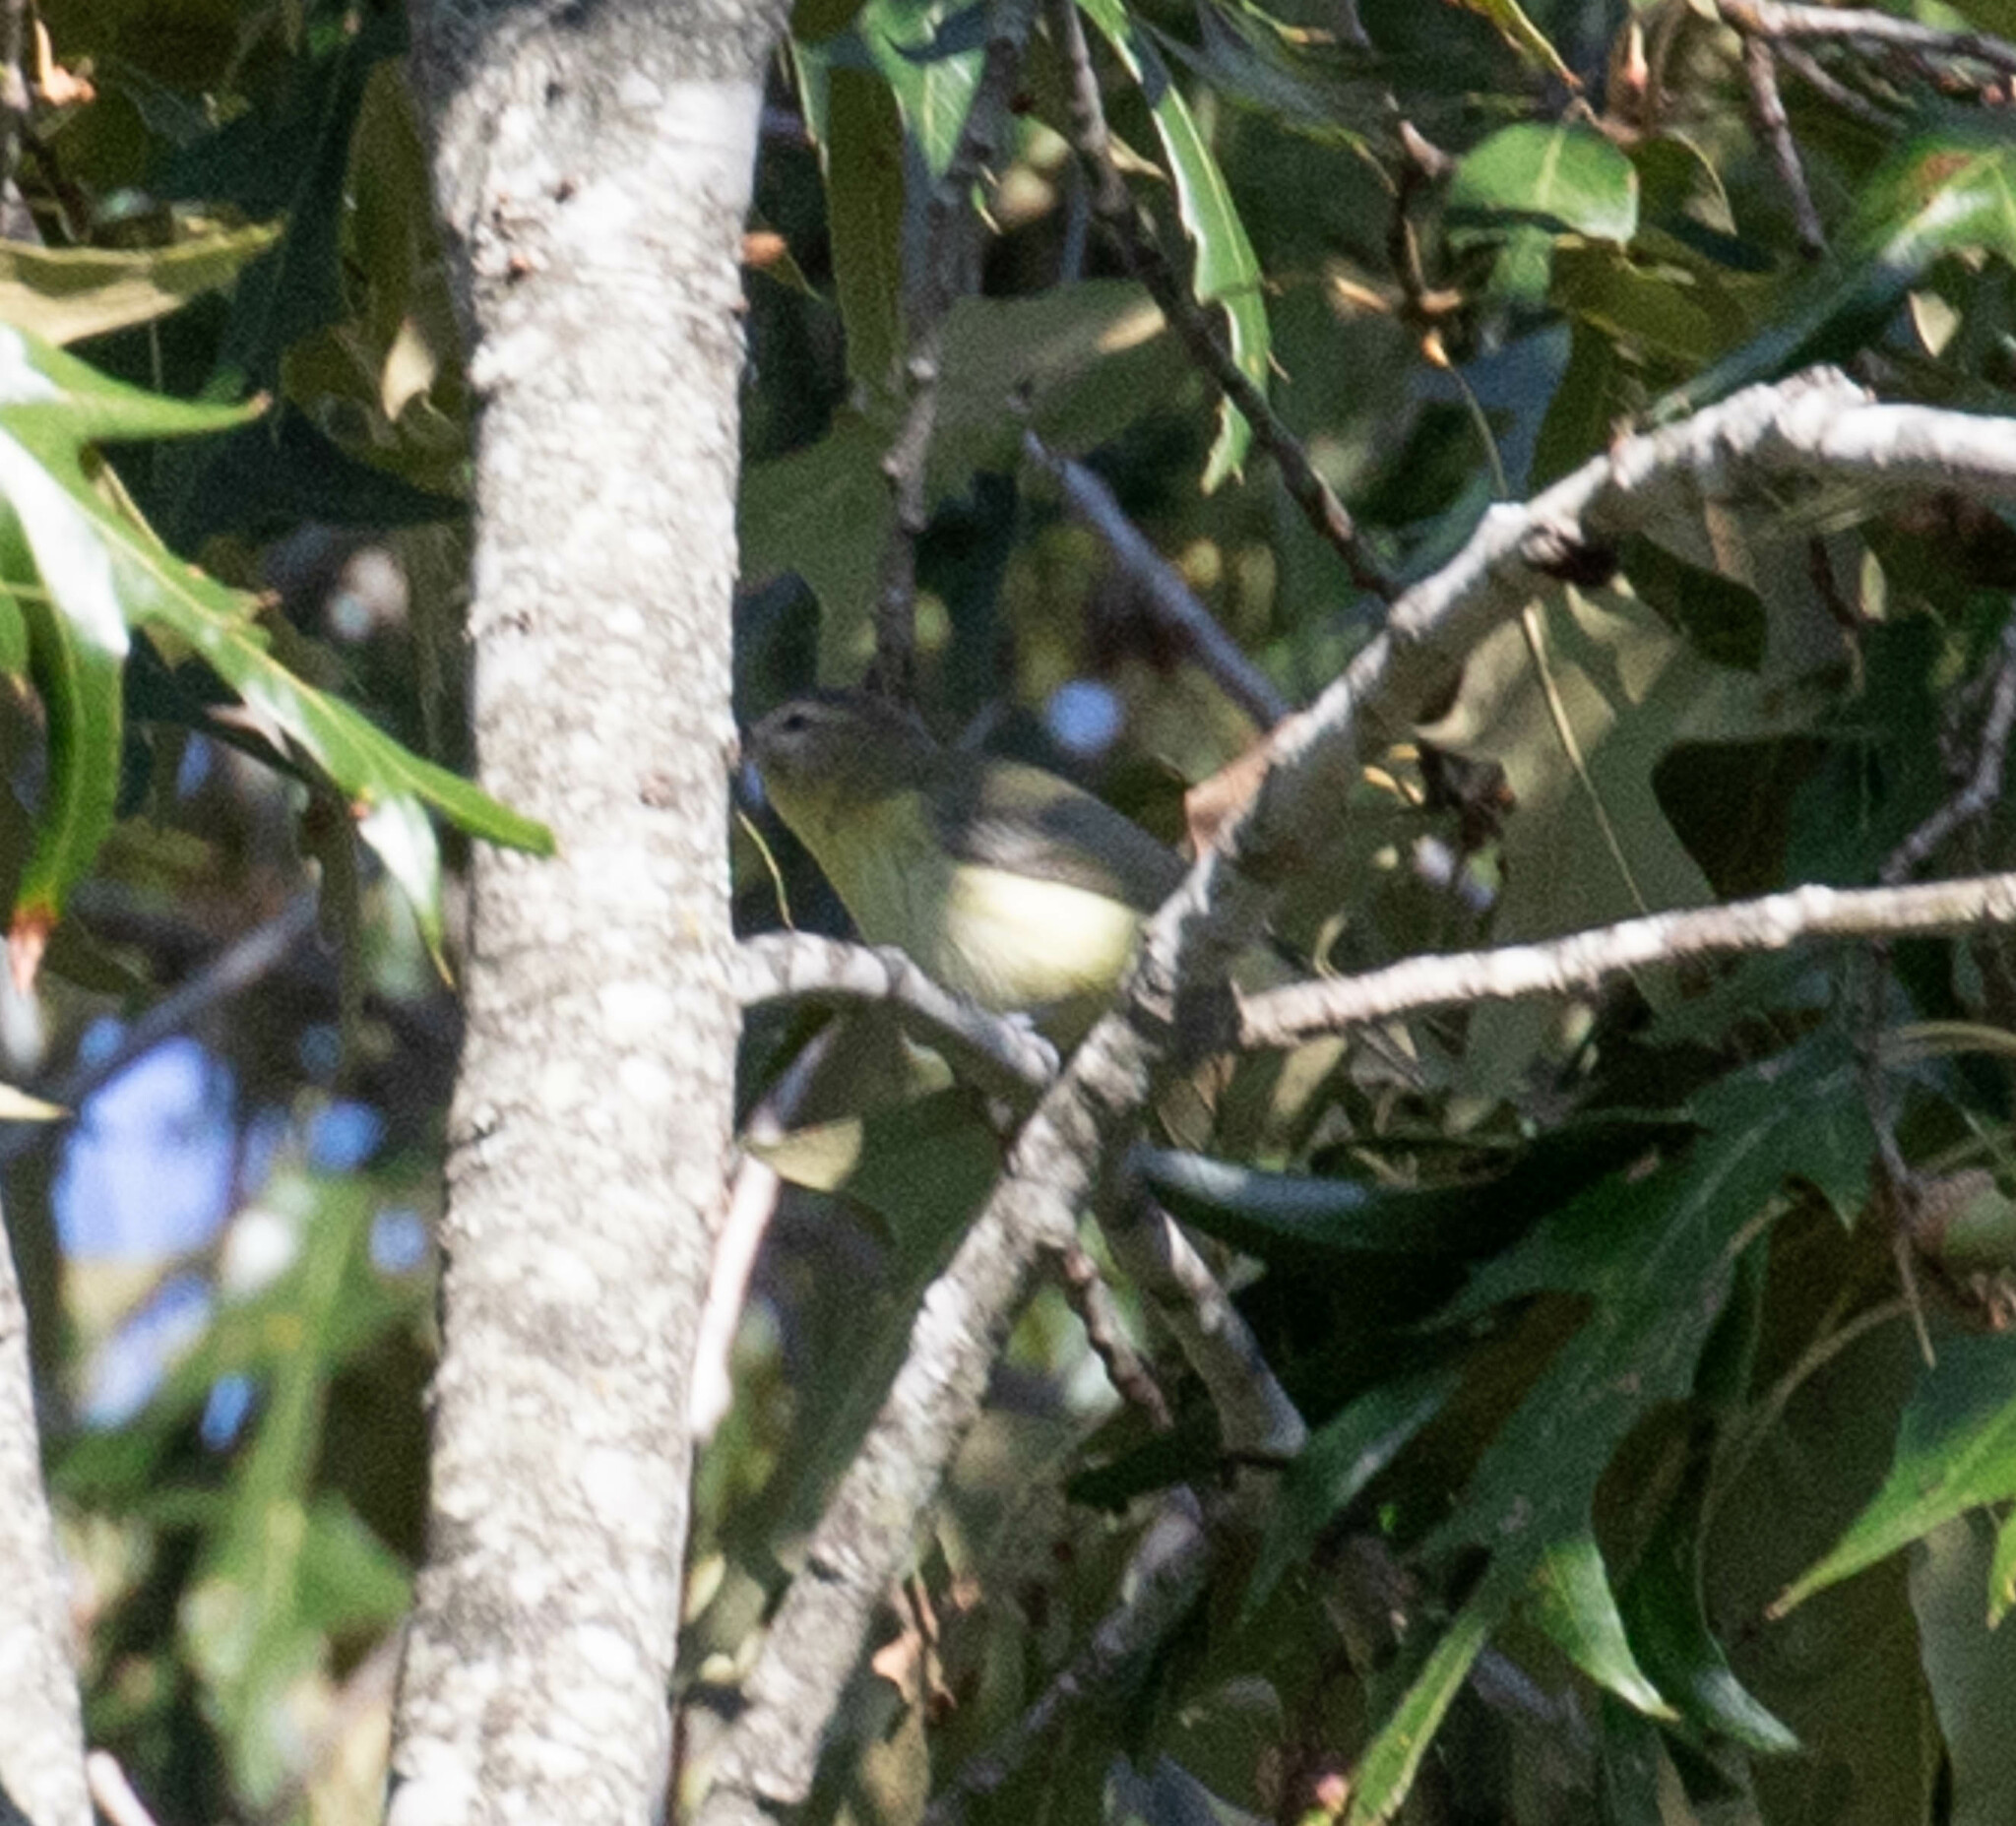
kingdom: Animalia
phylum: Chordata
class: Aves
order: Passeriformes
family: Vireonidae
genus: Vireo
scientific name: Vireo philadelphicus
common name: Philadelphia vireo
